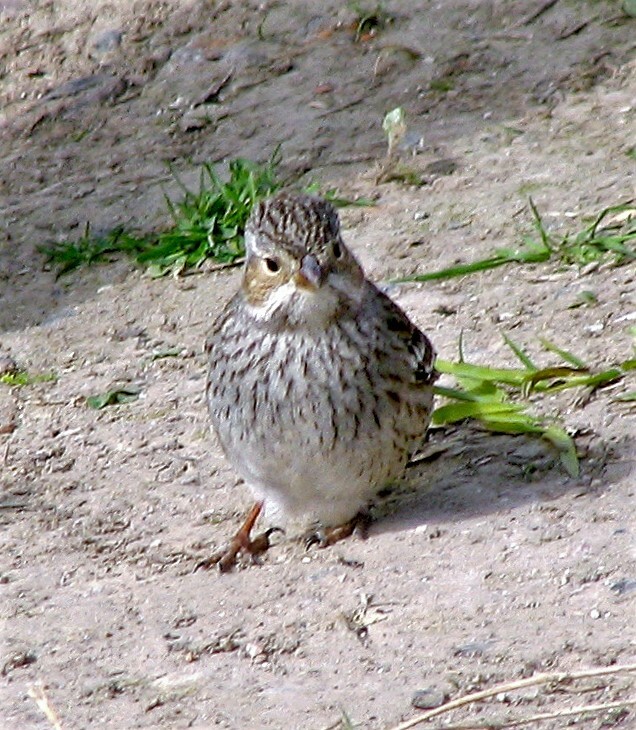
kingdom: Animalia
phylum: Chordata
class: Aves
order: Passeriformes
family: Thraupidae
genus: Rhopospina
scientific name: Rhopospina fruticeti
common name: Mourning sierra finch
